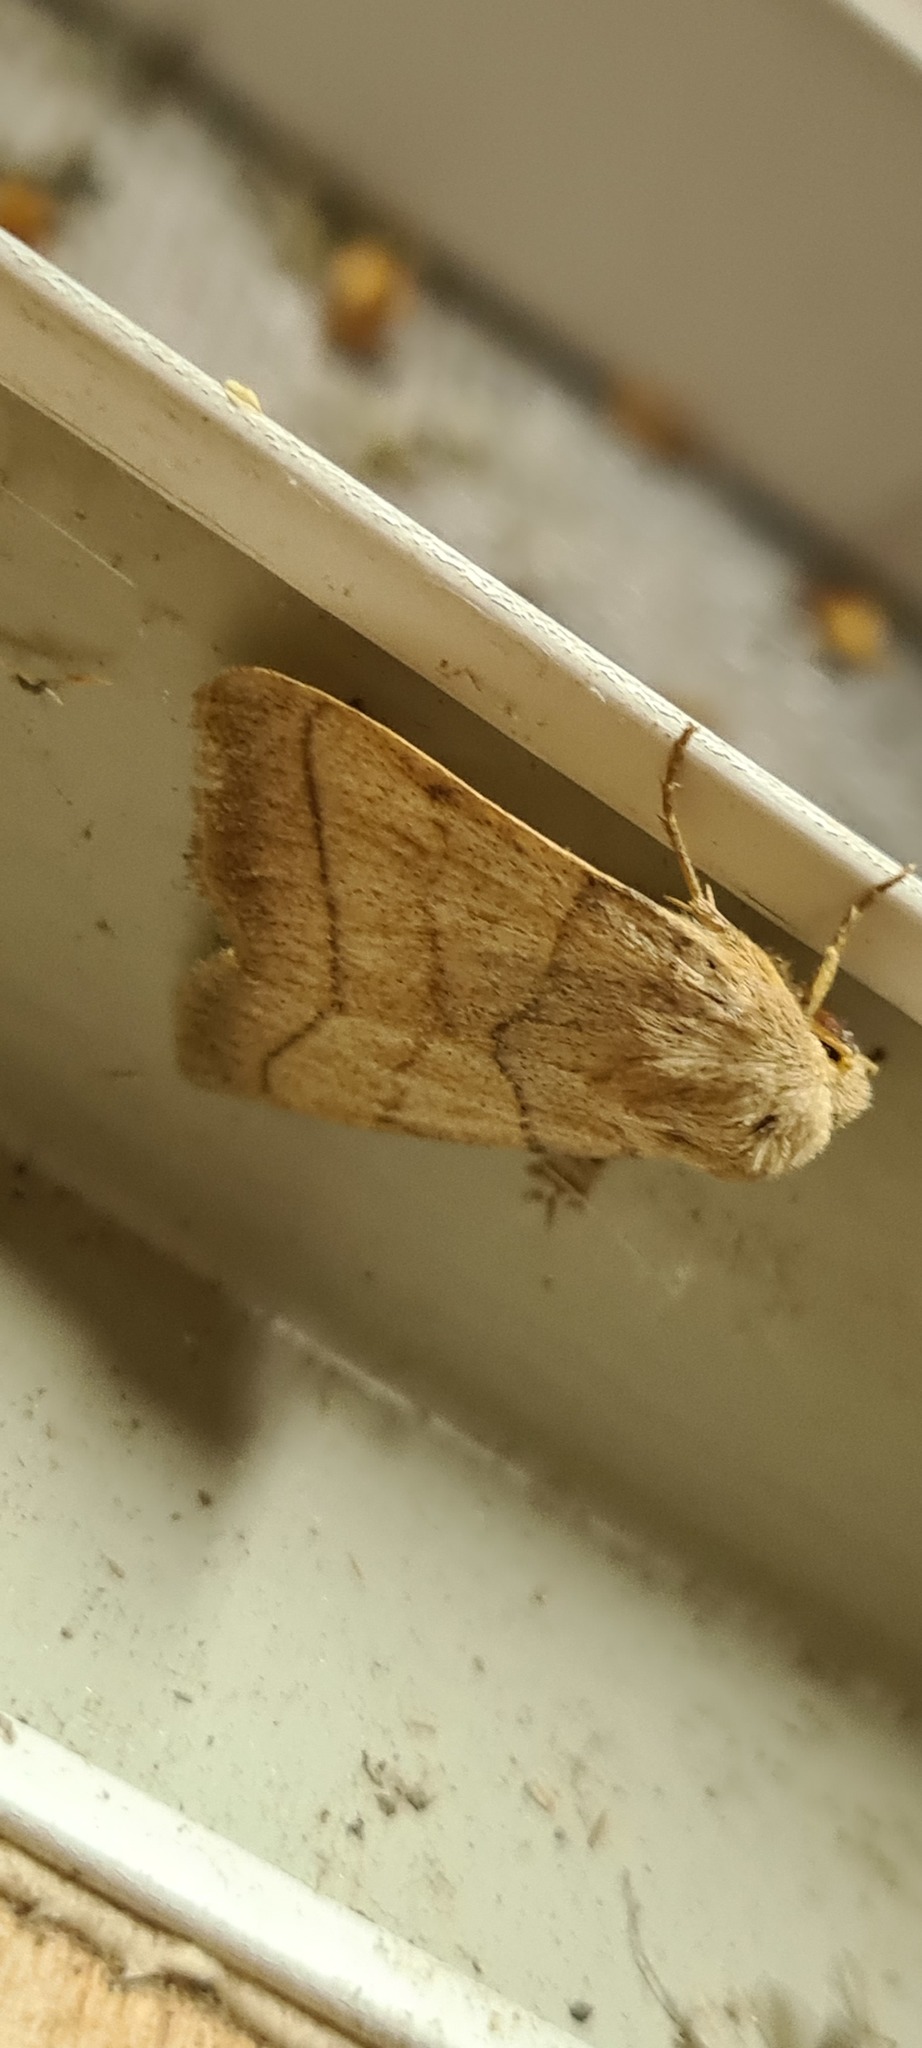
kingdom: Animalia
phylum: Arthropoda
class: Insecta
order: Lepidoptera
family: Noctuidae
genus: Charanyca
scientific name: Charanyca trigrammica
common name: Treble lines
